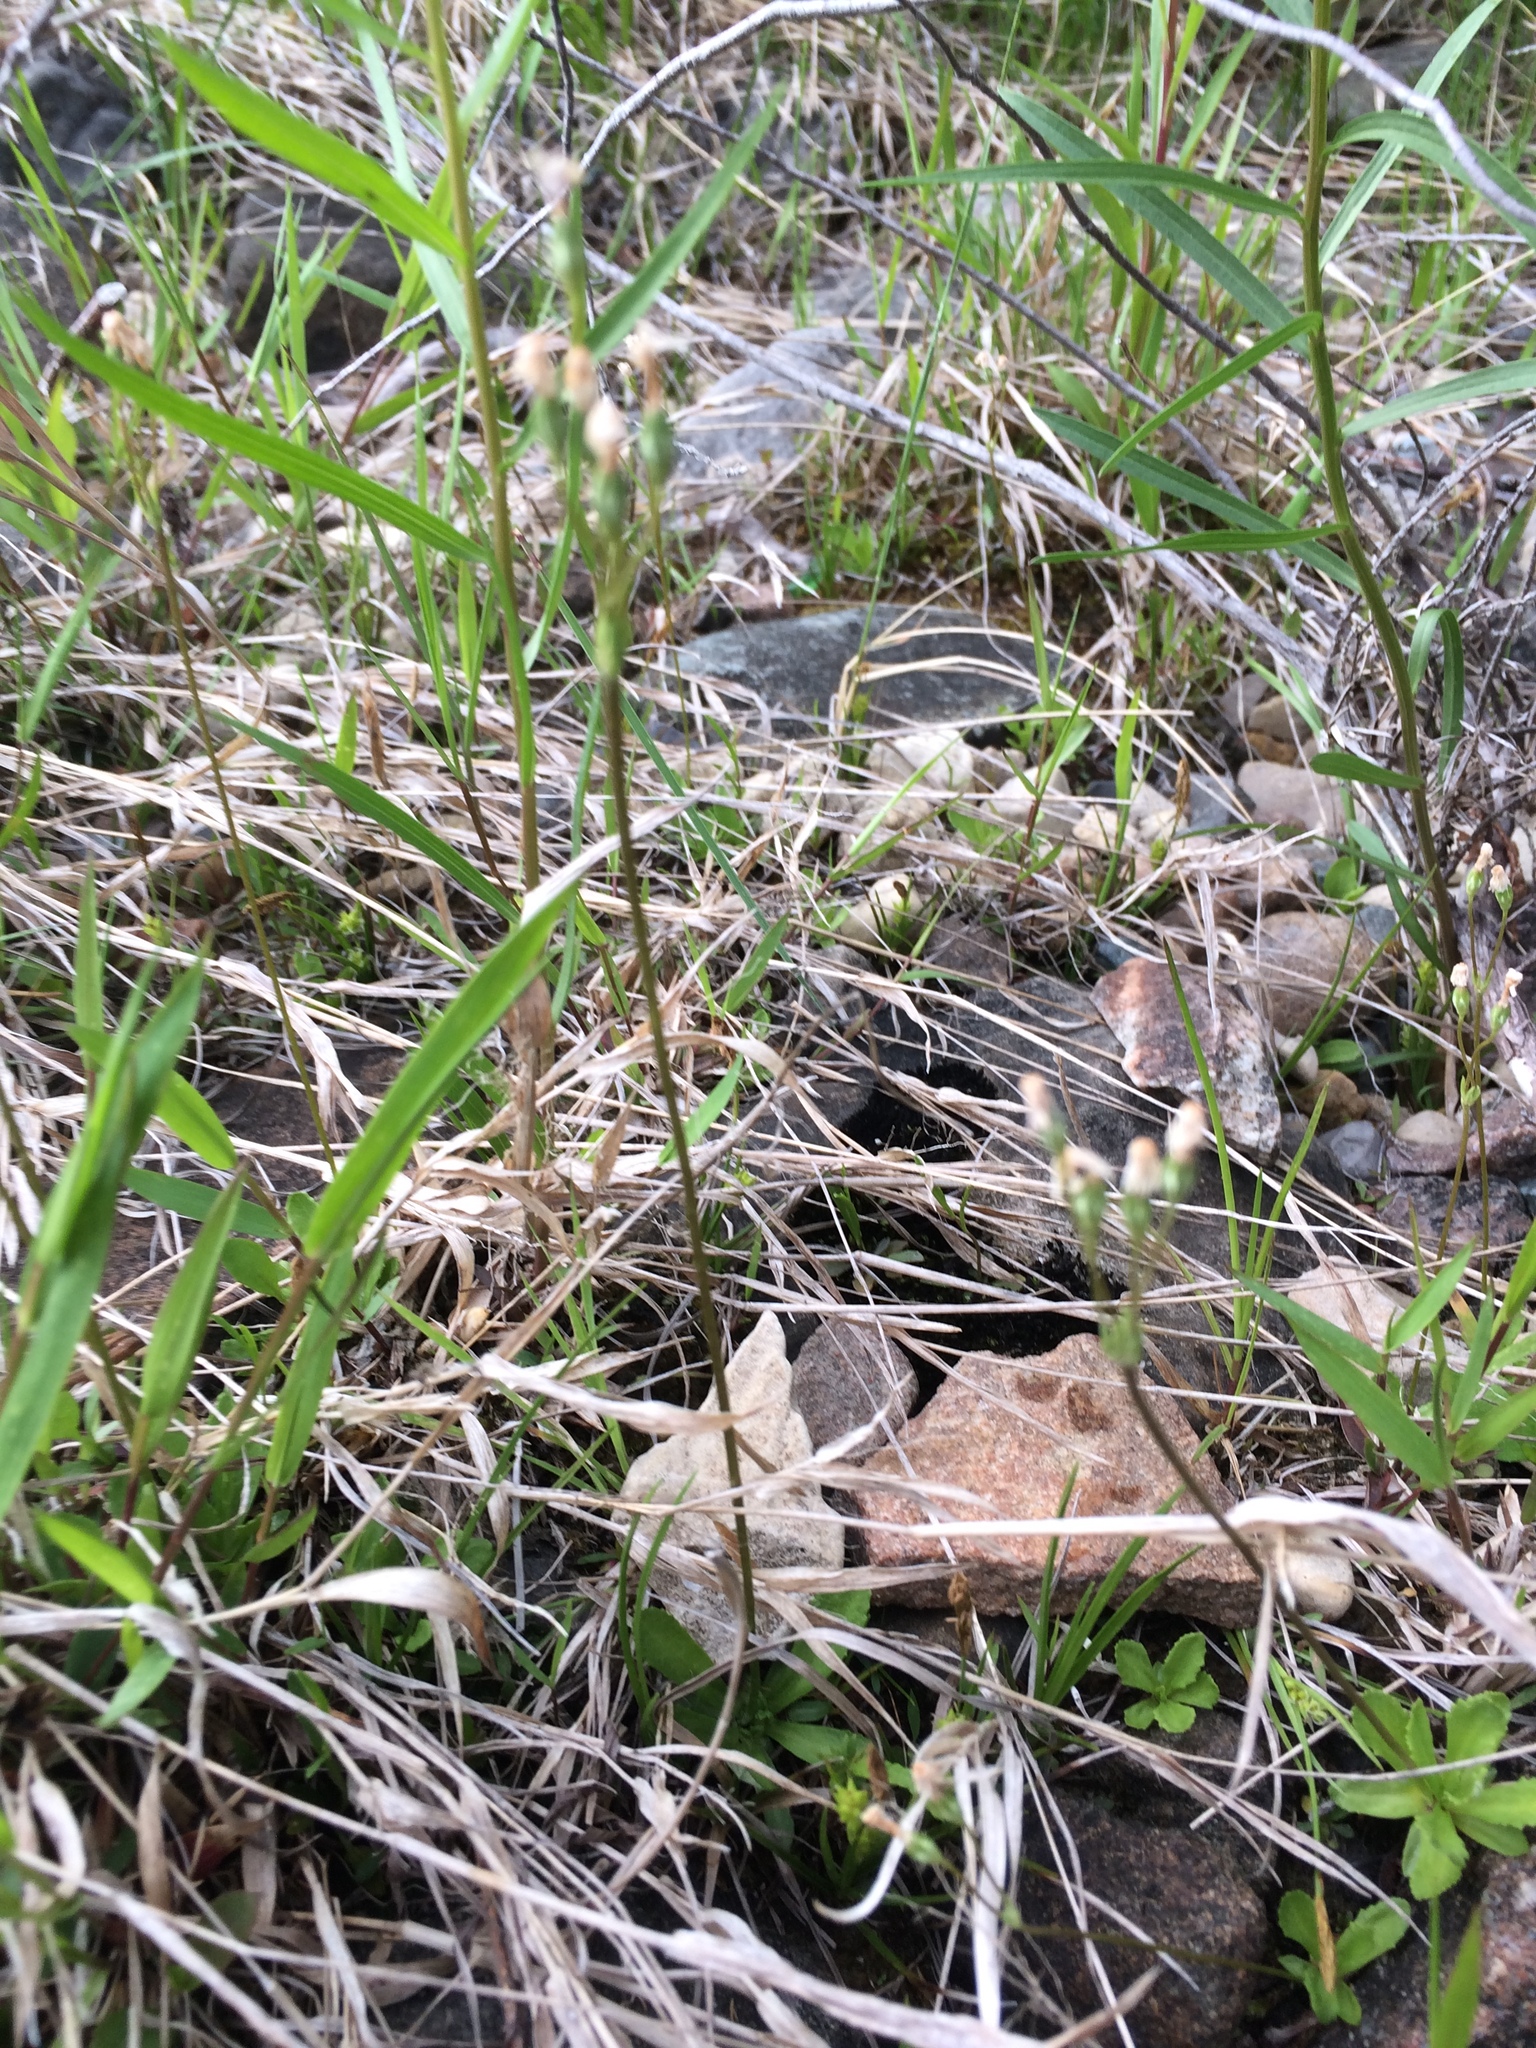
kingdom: Plantae
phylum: Tracheophyta
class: Magnoliopsida
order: Ericales
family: Primulaceae
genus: Primula
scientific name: Primula mistassinica
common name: Bird's-eye primrose
